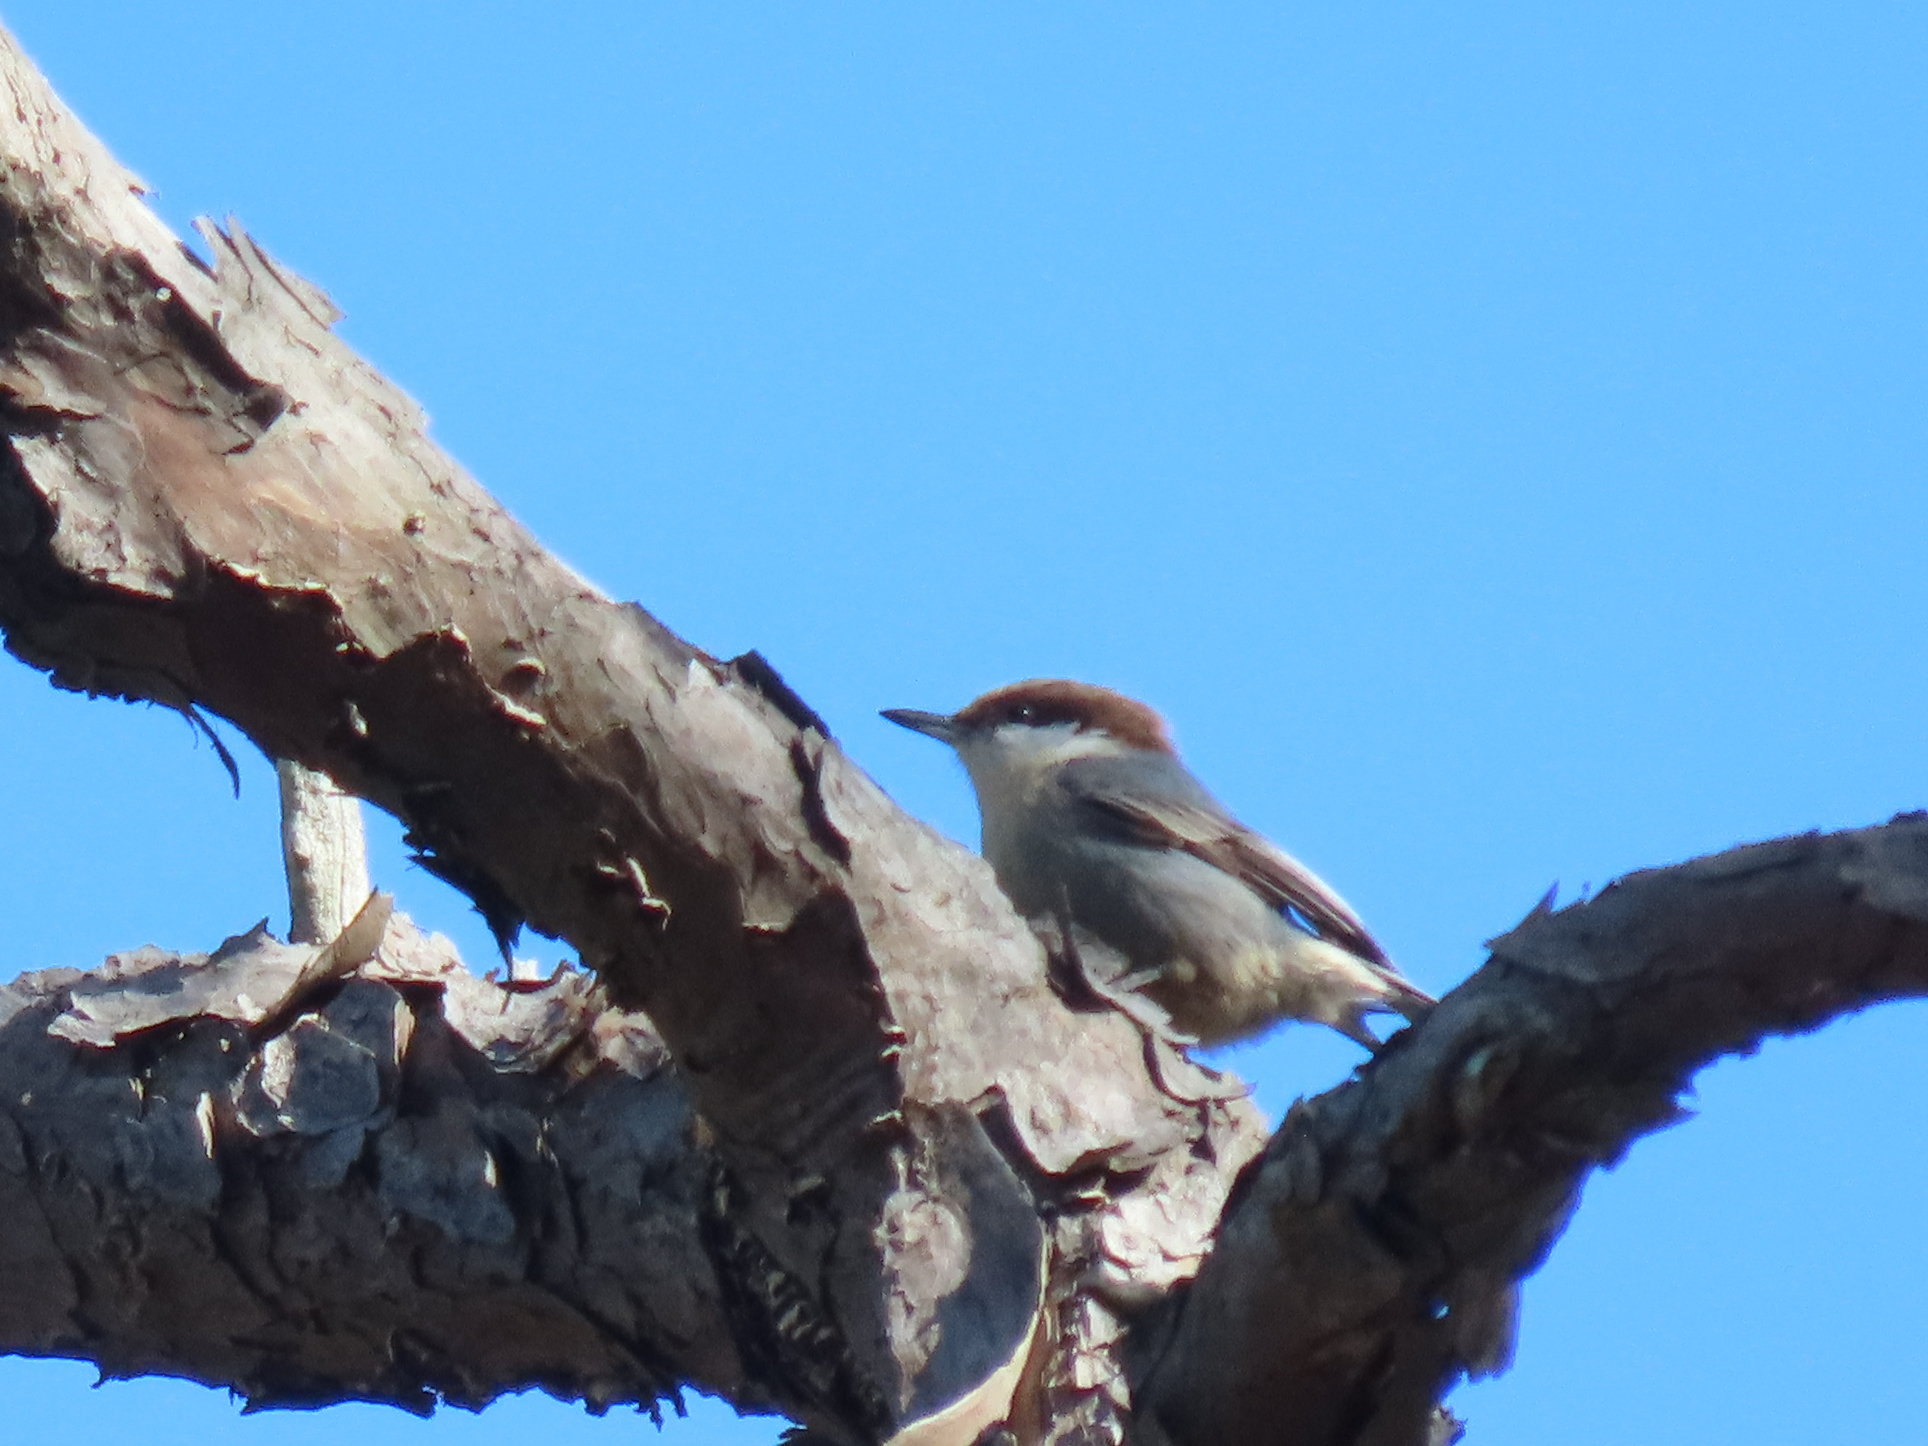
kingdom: Animalia
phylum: Chordata
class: Aves
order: Passeriformes
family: Sittidae
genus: Sitta
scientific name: Sitta pusilla
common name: Brown-headed nuthatch
